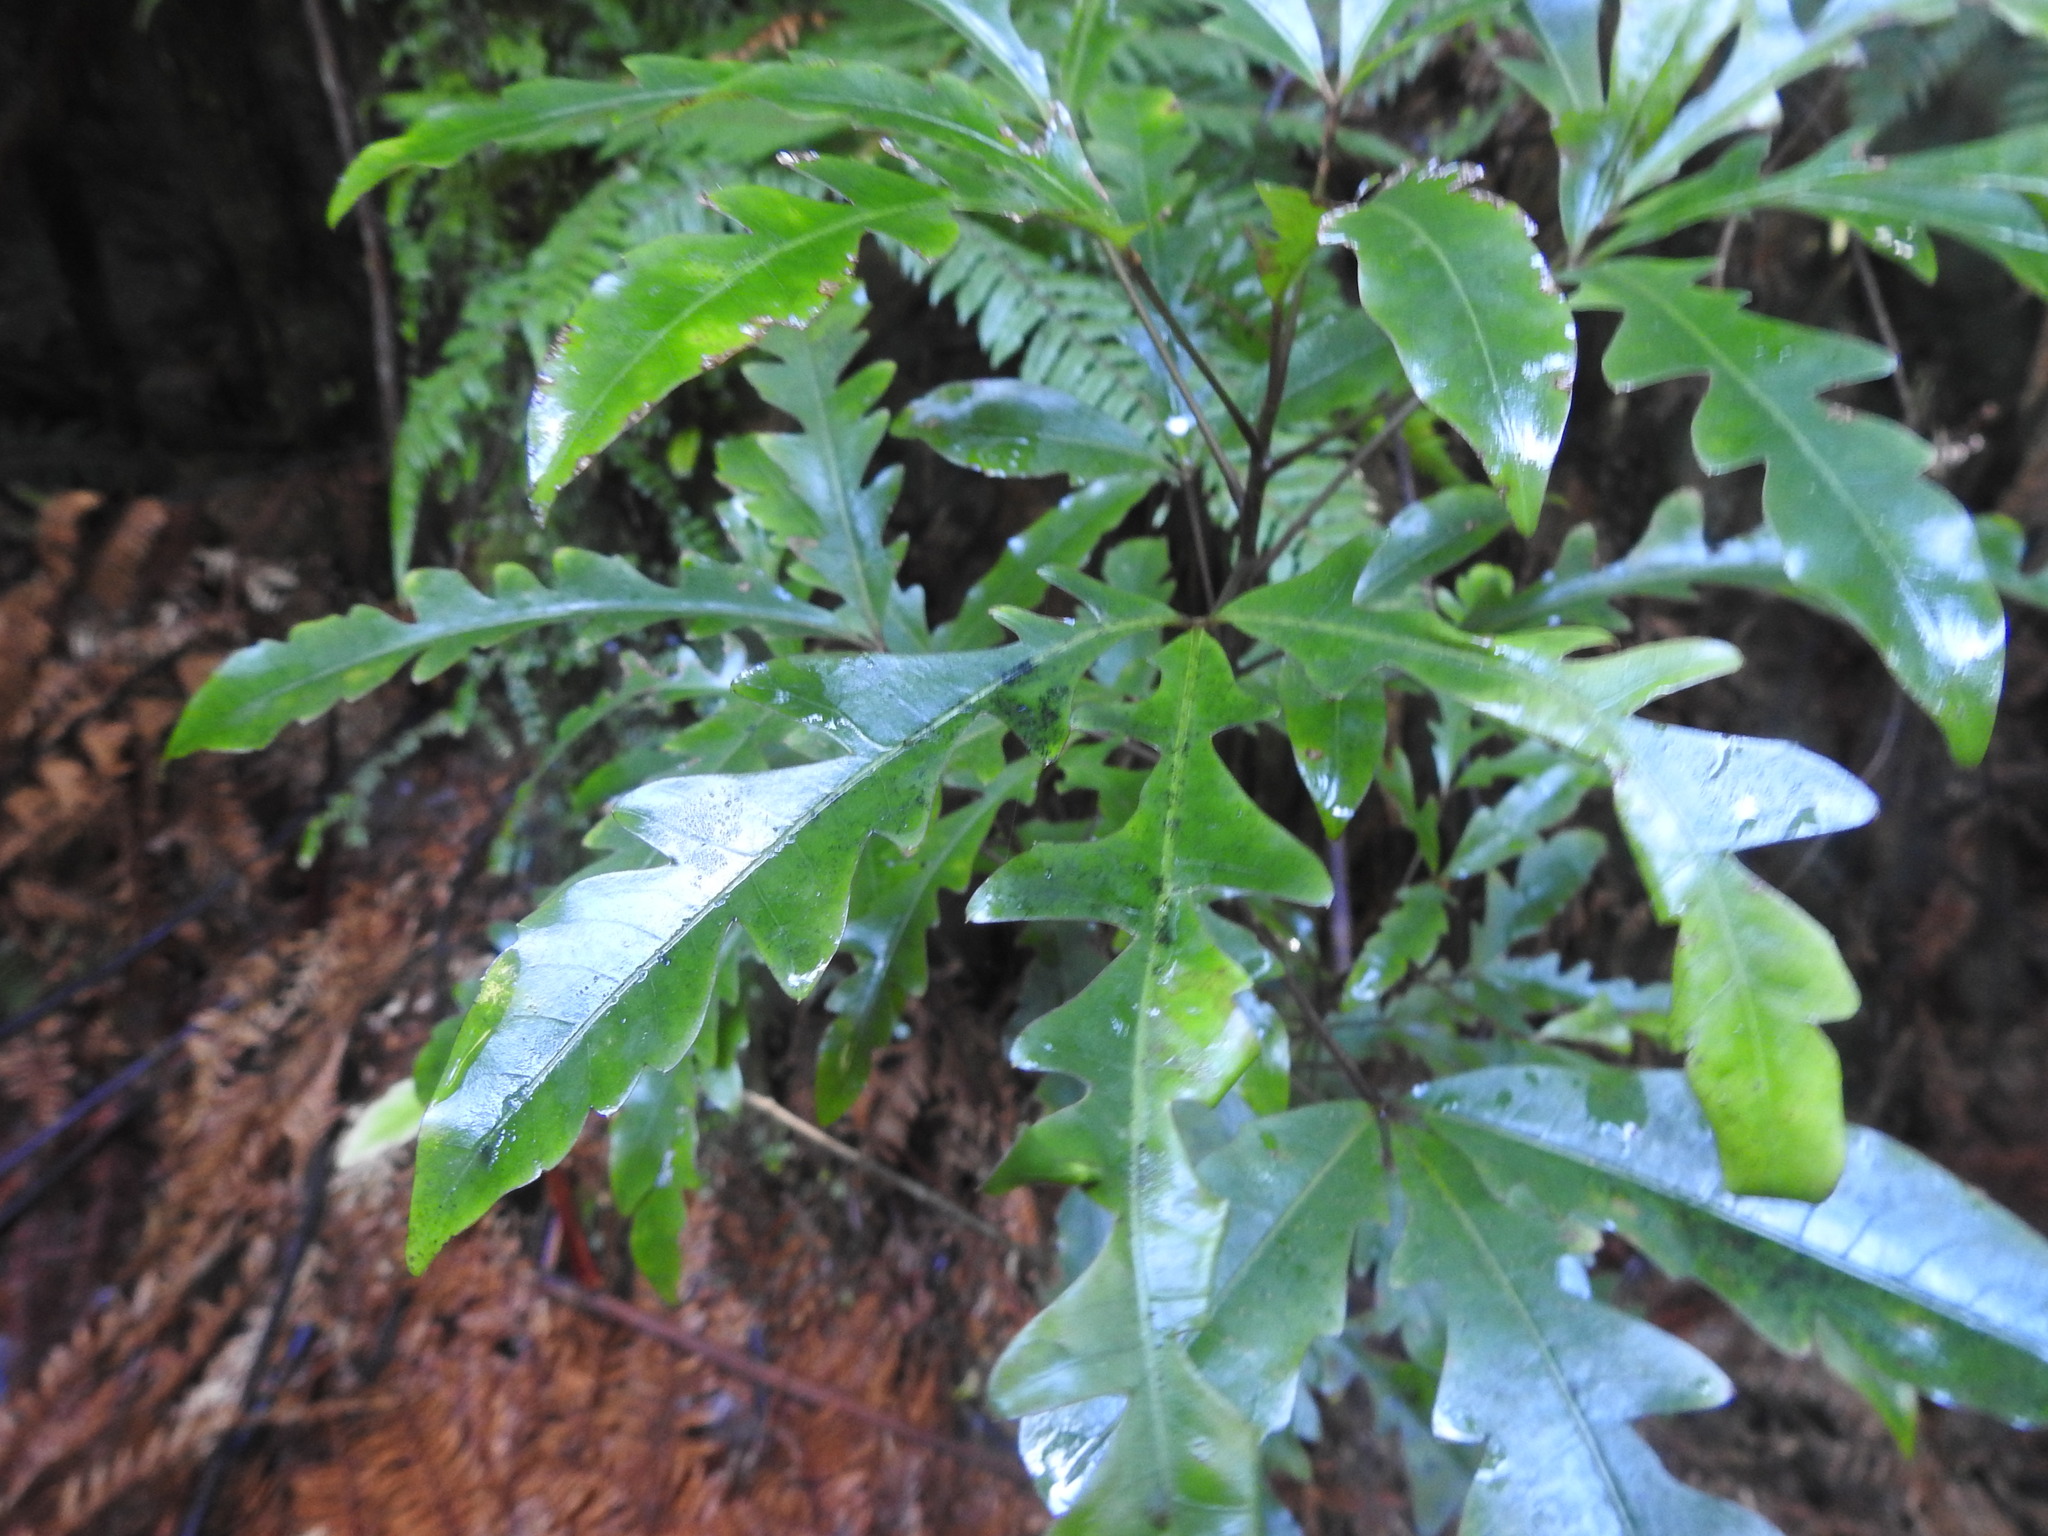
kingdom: Plantae
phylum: Tracheophyta
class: Magnoliopsida
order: Apiales
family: Araliaceae
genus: Raukaua
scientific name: Raukaua edgerleyi
